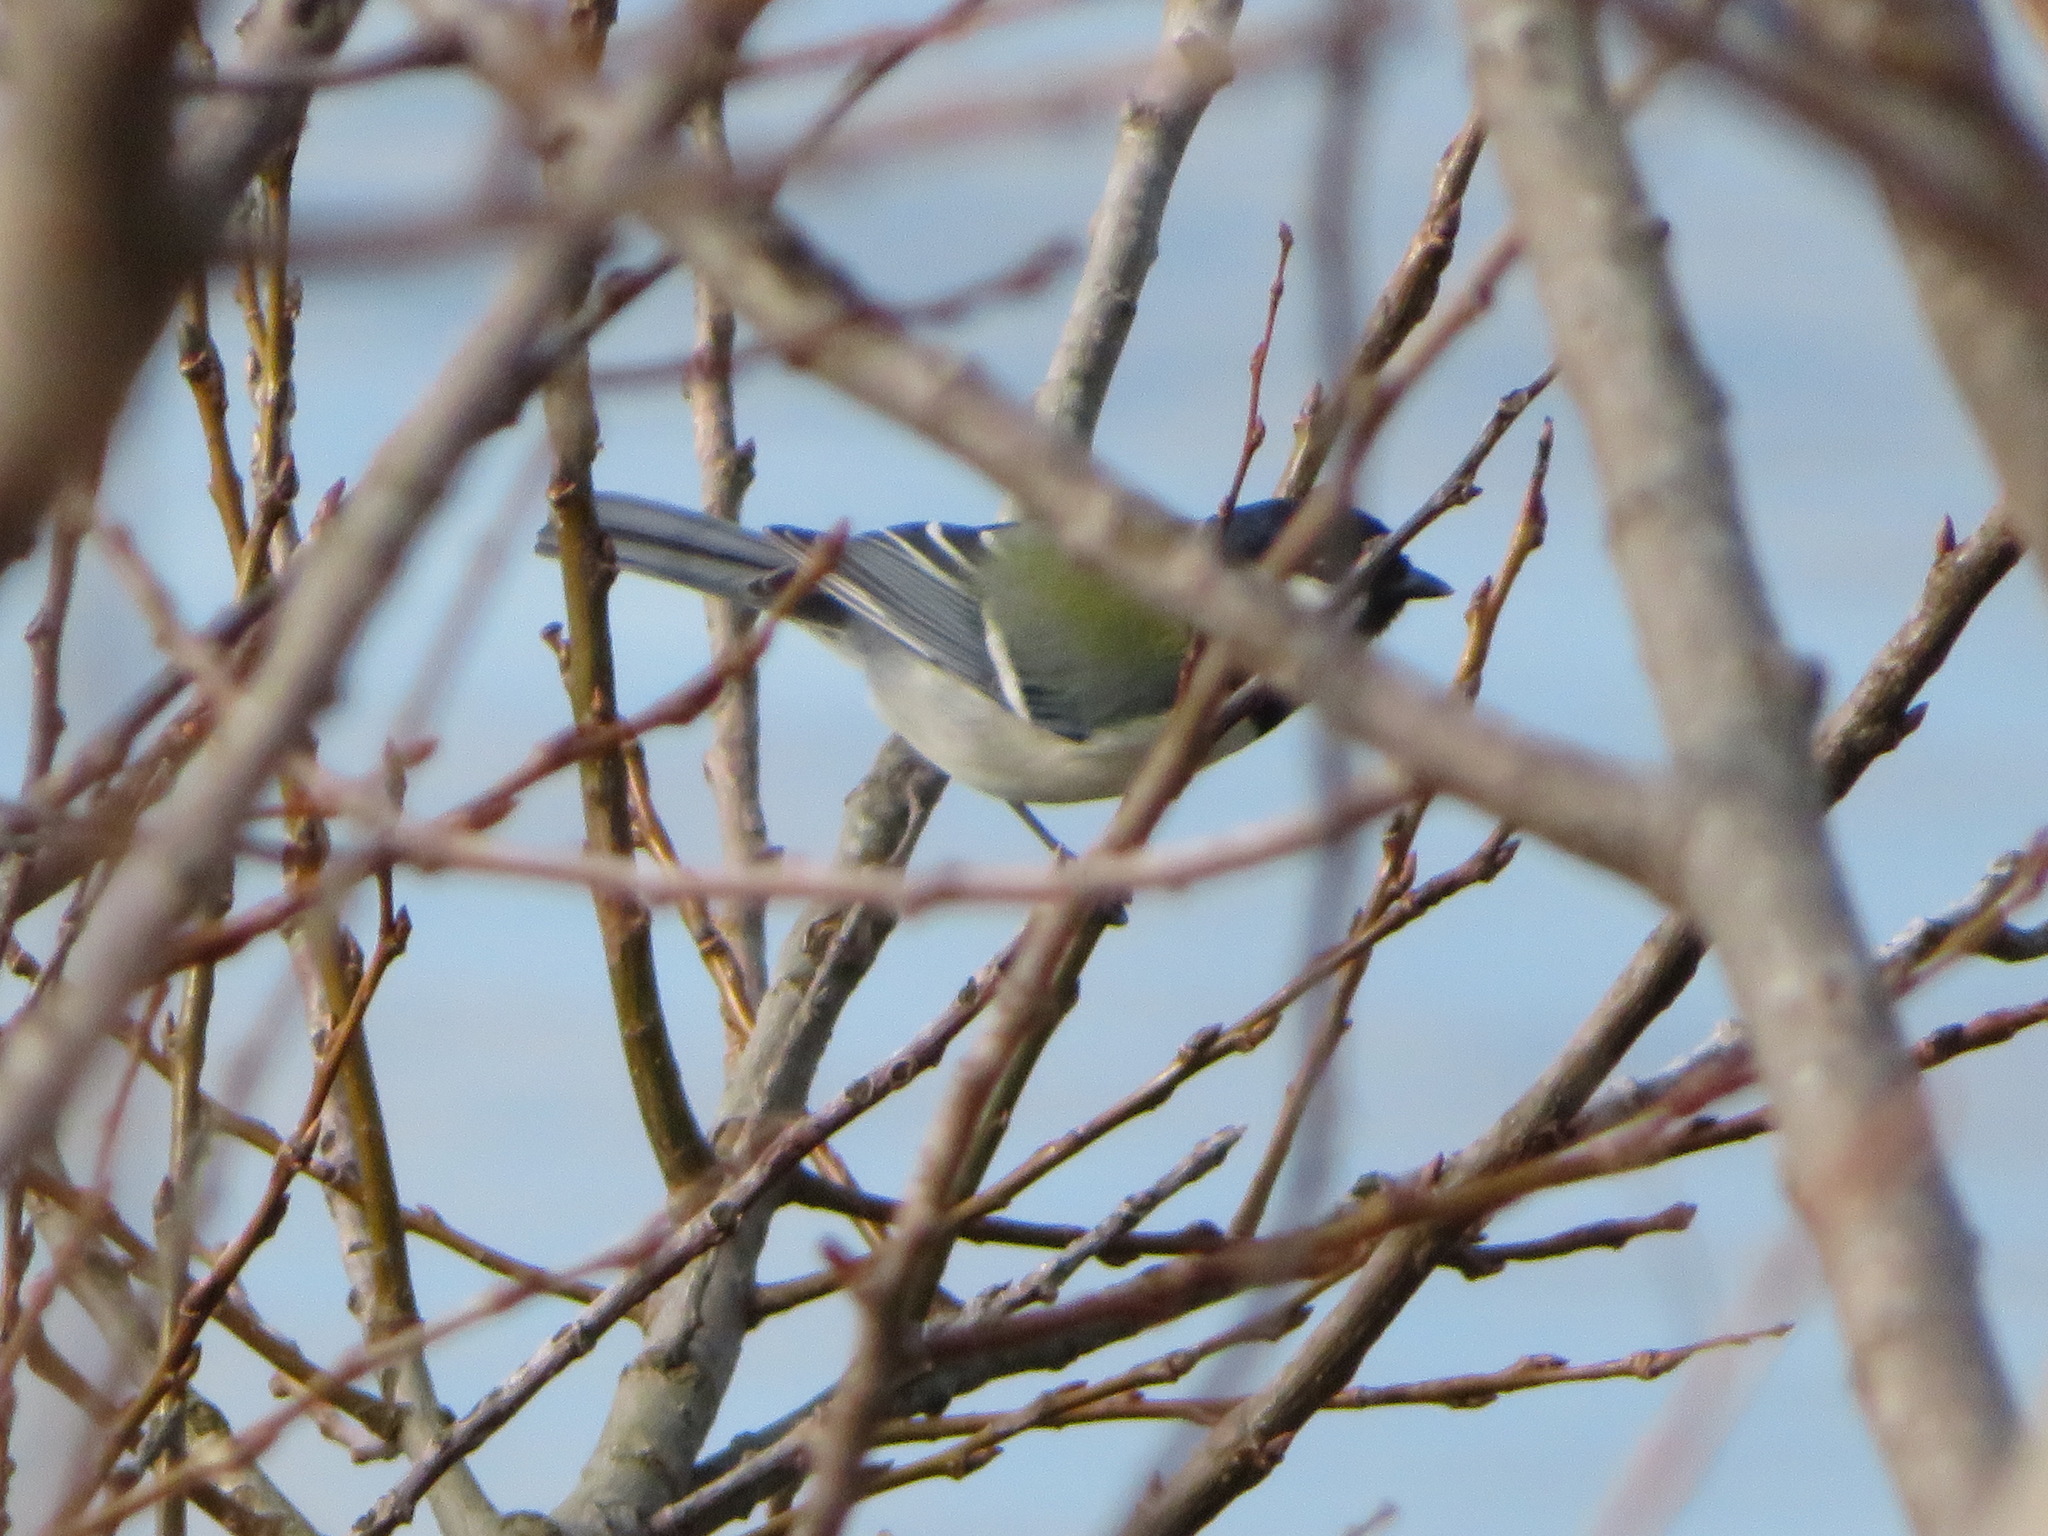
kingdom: Animalia
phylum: Chordata
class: Aves
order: Passeriformes
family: Paridae
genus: Parus
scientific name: Parus minor
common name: Japanese tit
